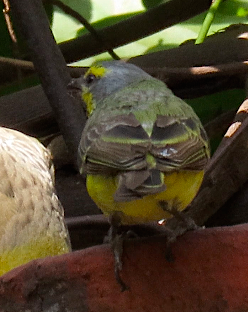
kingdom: Animalia
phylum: Chordata
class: Aves
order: Passeriformes
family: Fringillidae
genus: Crithagra
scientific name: Crithagra mozambica
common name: Yellow-fronted canary
